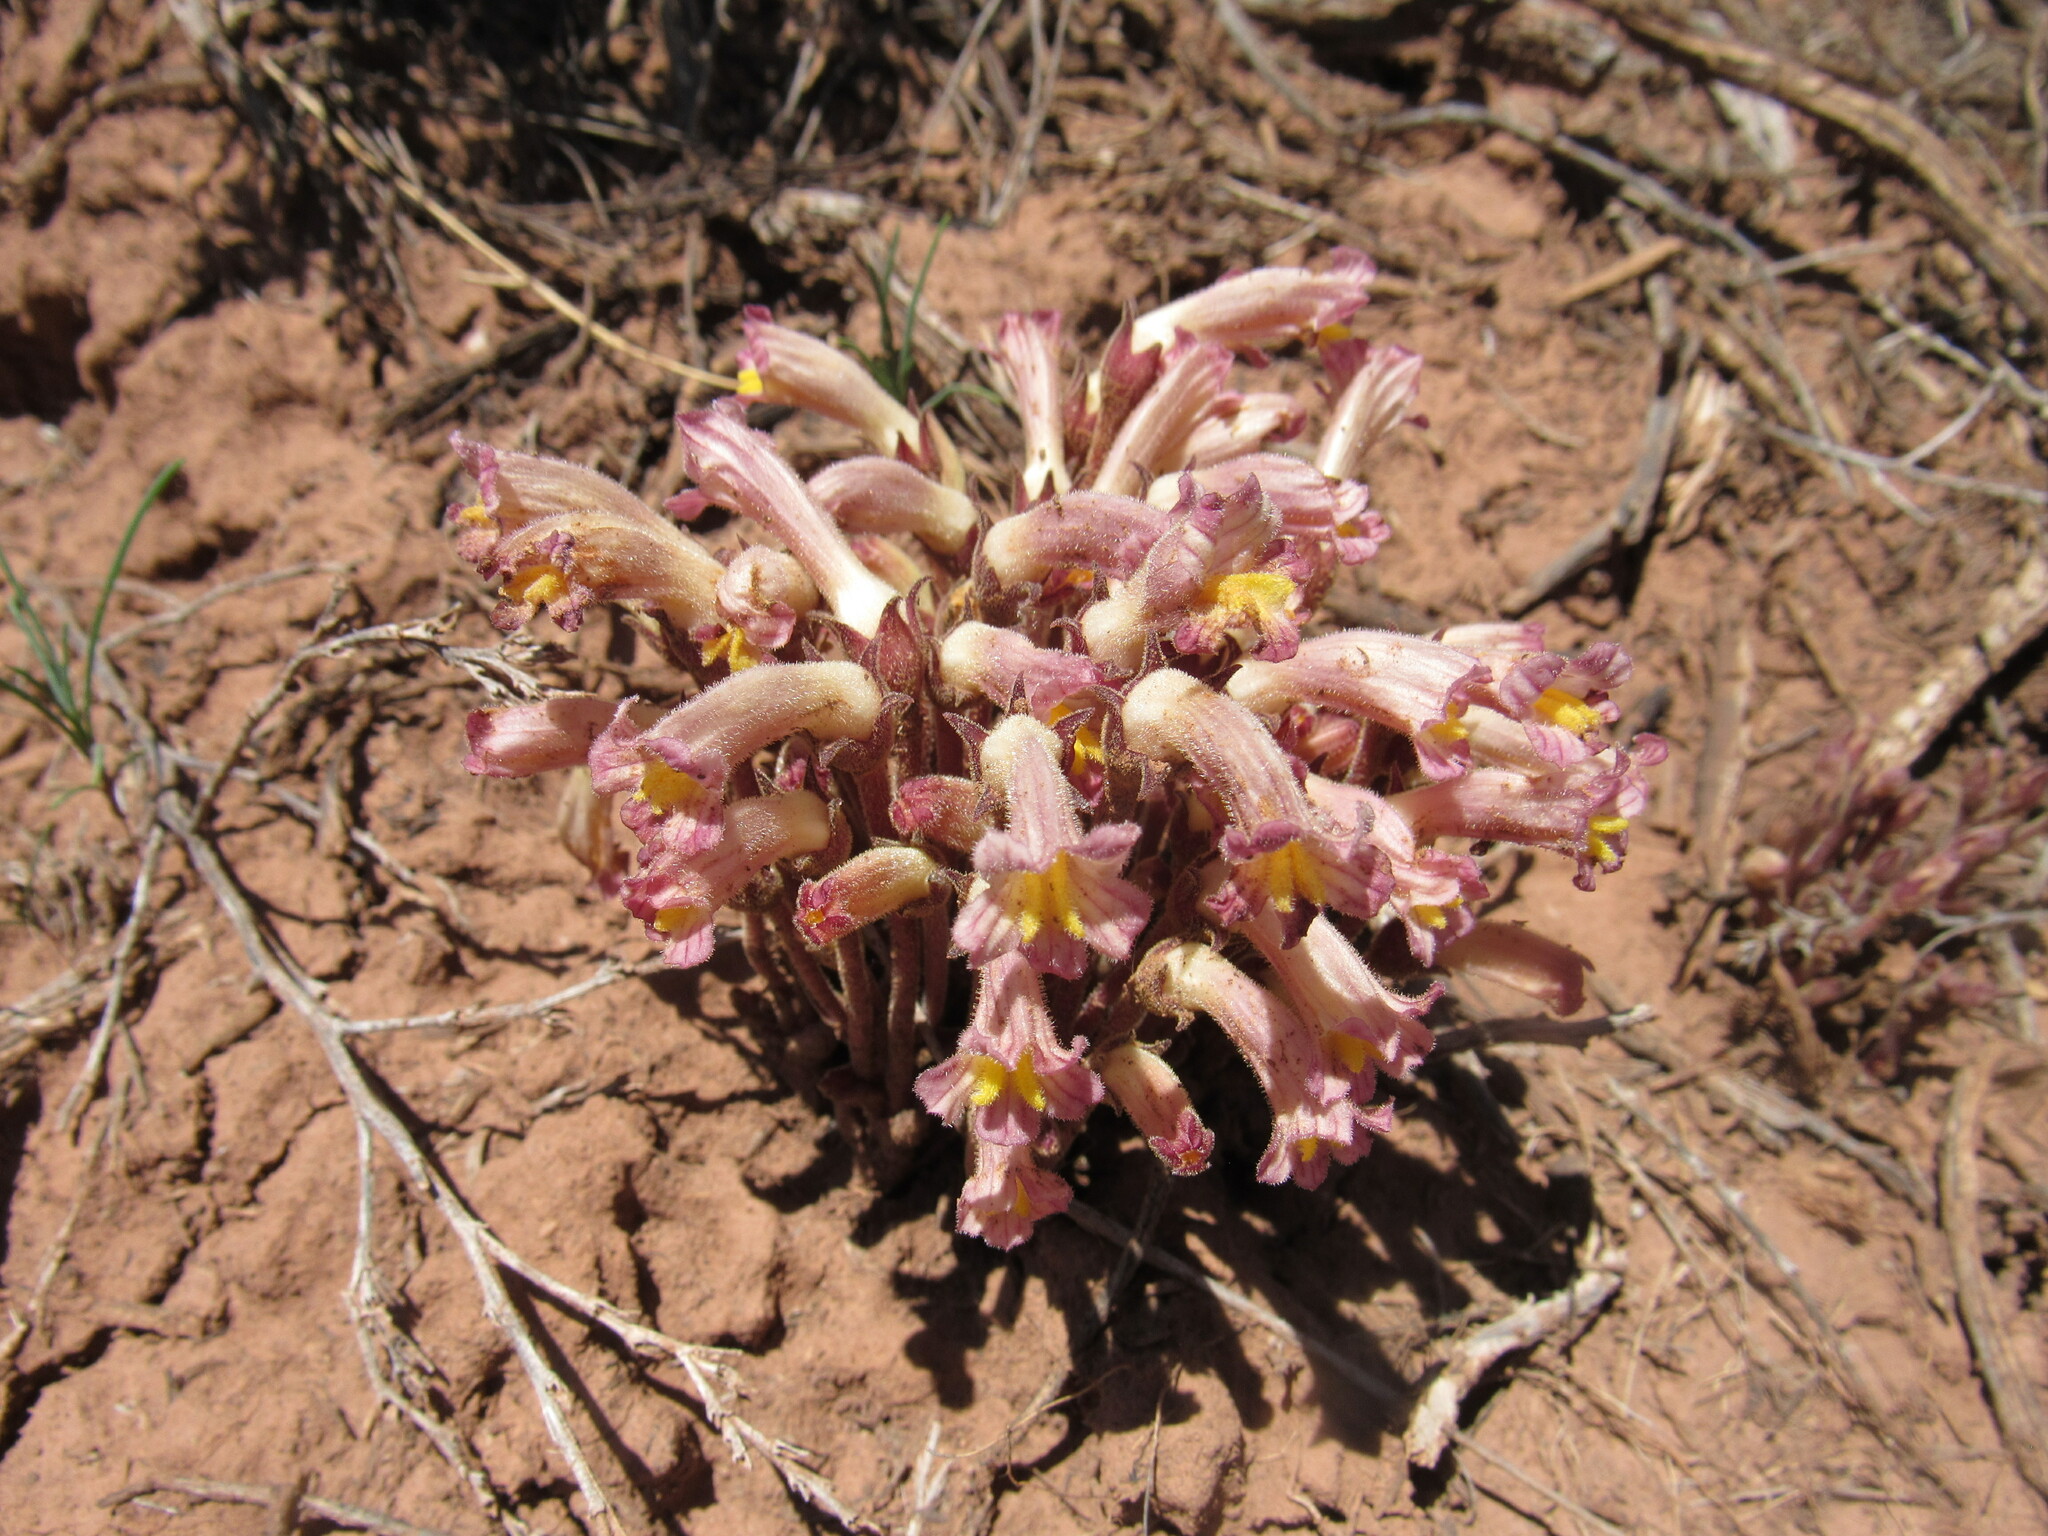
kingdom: Plantae
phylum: Tracheophyta
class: Magnoliopsida
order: Lamiales
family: Orobanchaceae
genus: Aphyllon
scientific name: Aphyllon fasciculatum
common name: Clustered broomrape
